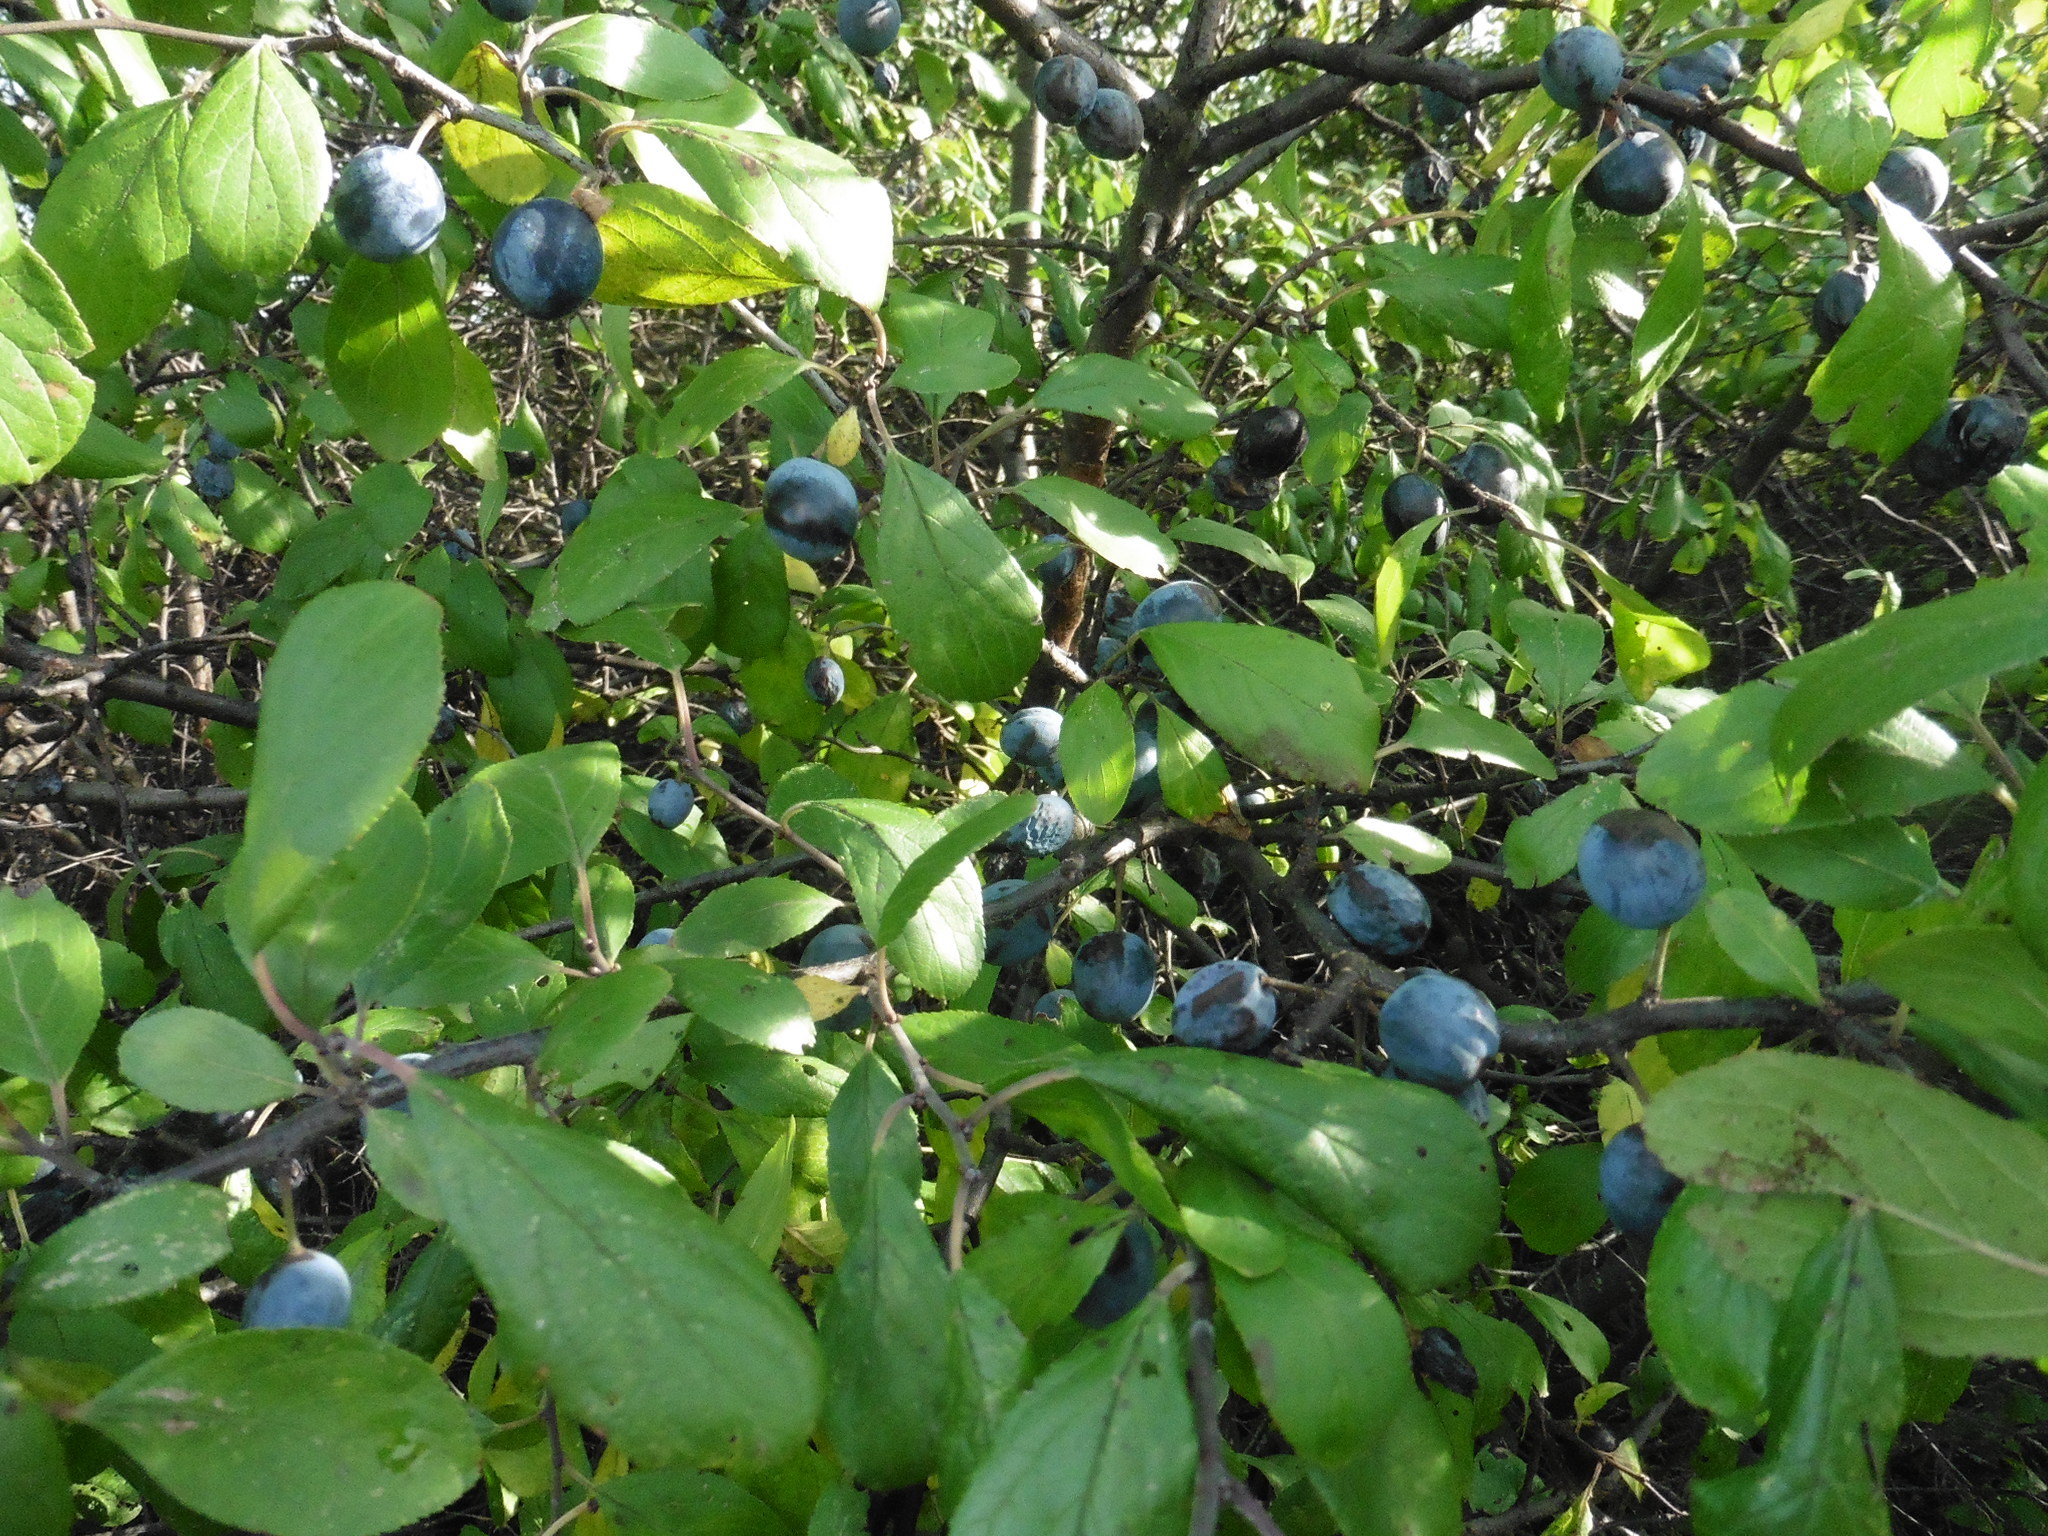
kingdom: Plantae
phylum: Tracheophyta
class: Magnoliopsida
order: Rosales
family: Rosaceae
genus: Prunus
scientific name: Prunus spinosa
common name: Blackthorn
